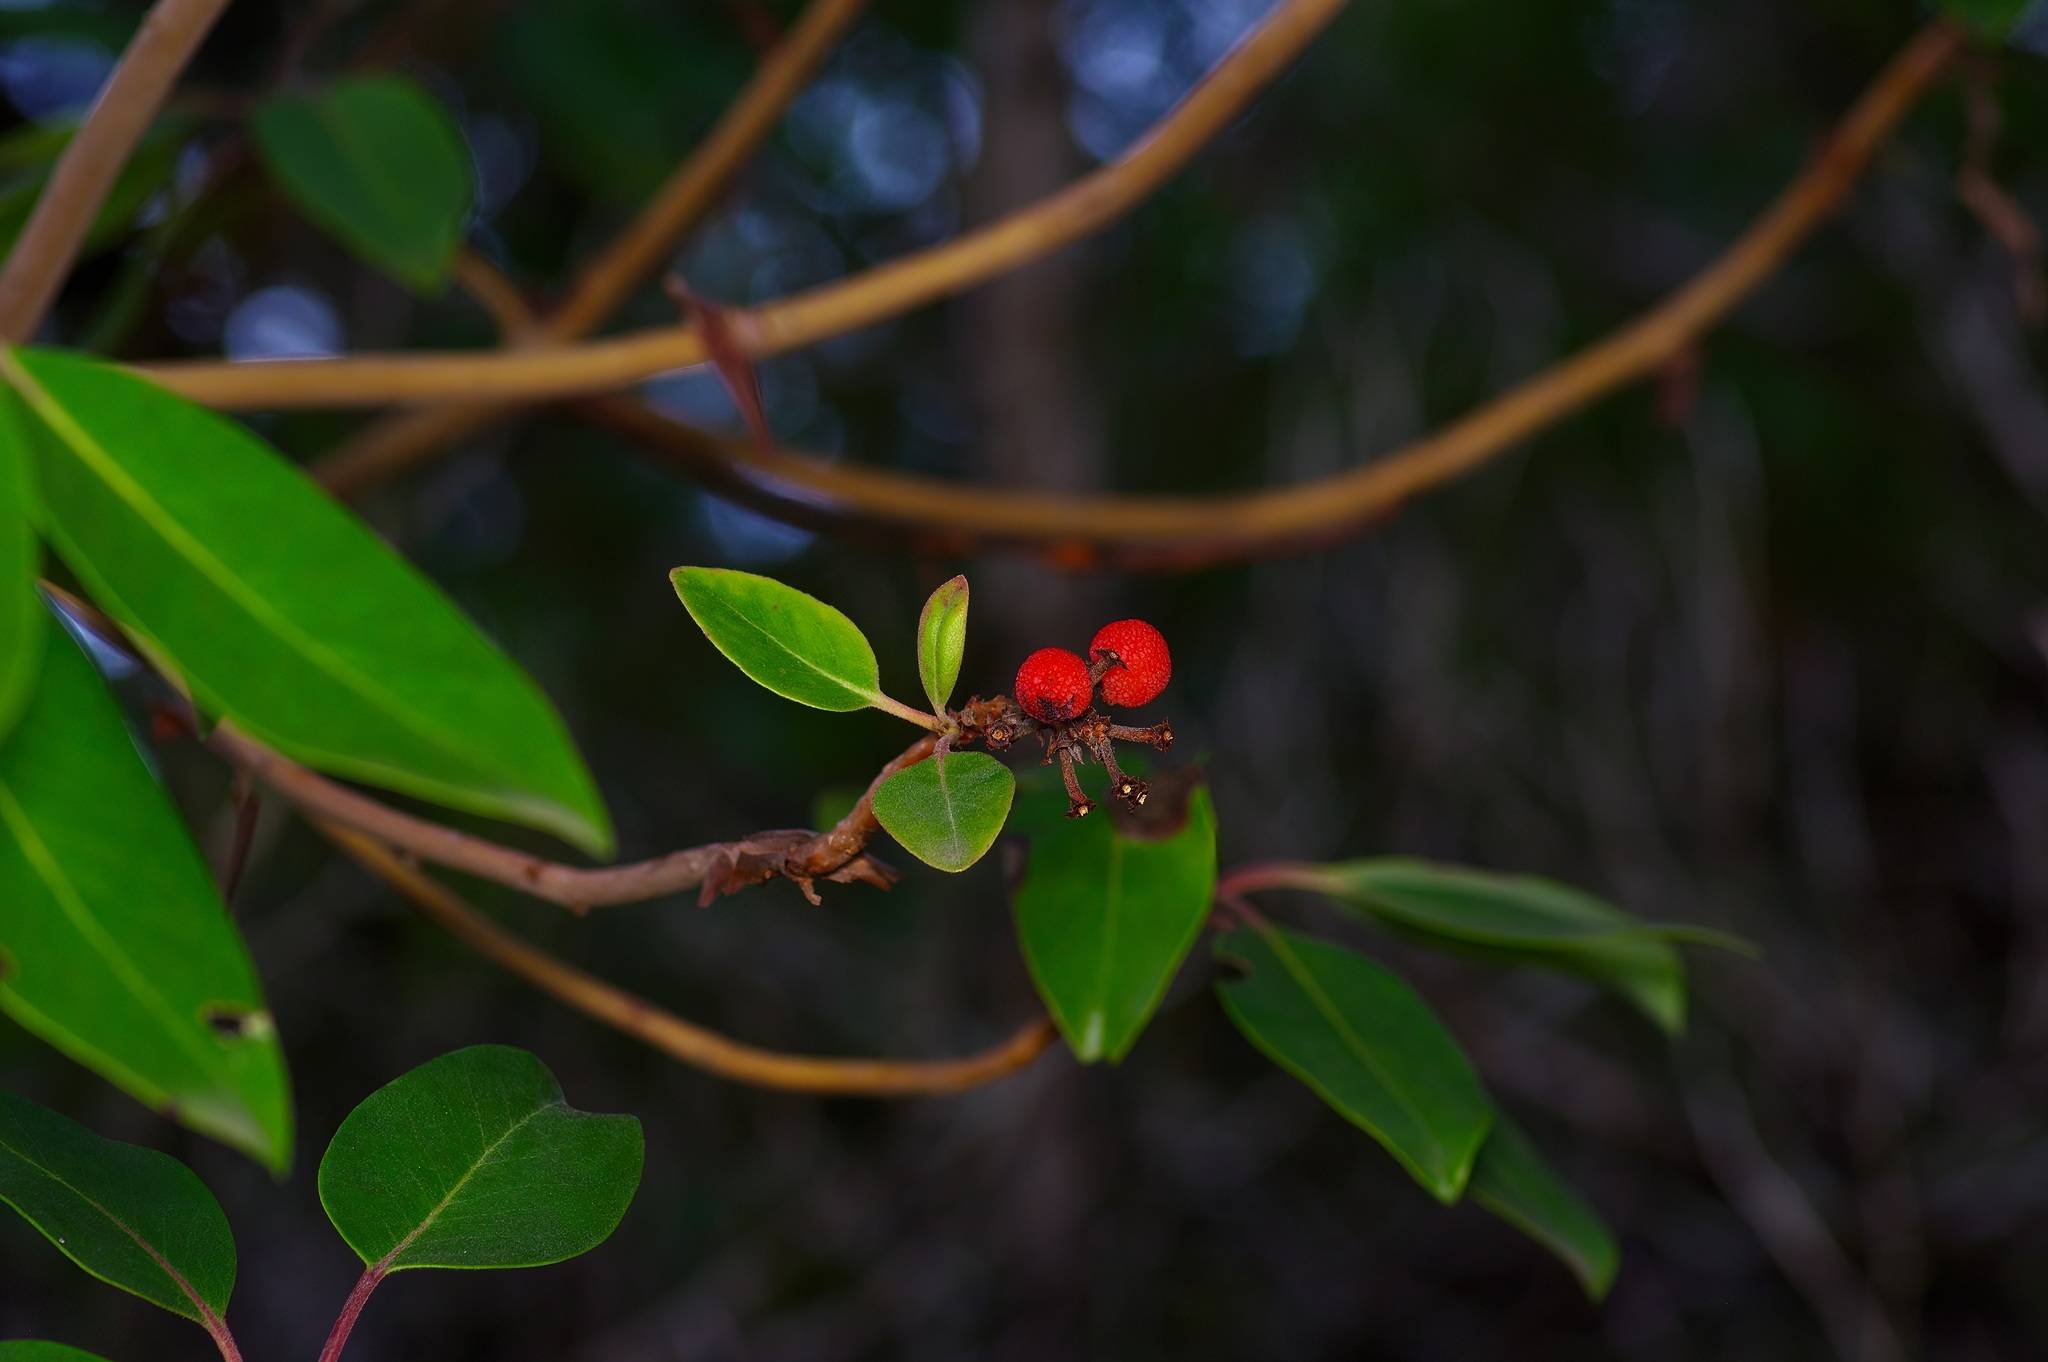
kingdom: Plantae
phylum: Tracheophyta
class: Magnoliopsida
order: Ericales
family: Ericaceae
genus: Arbutus
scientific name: Arbutus xalapensis
